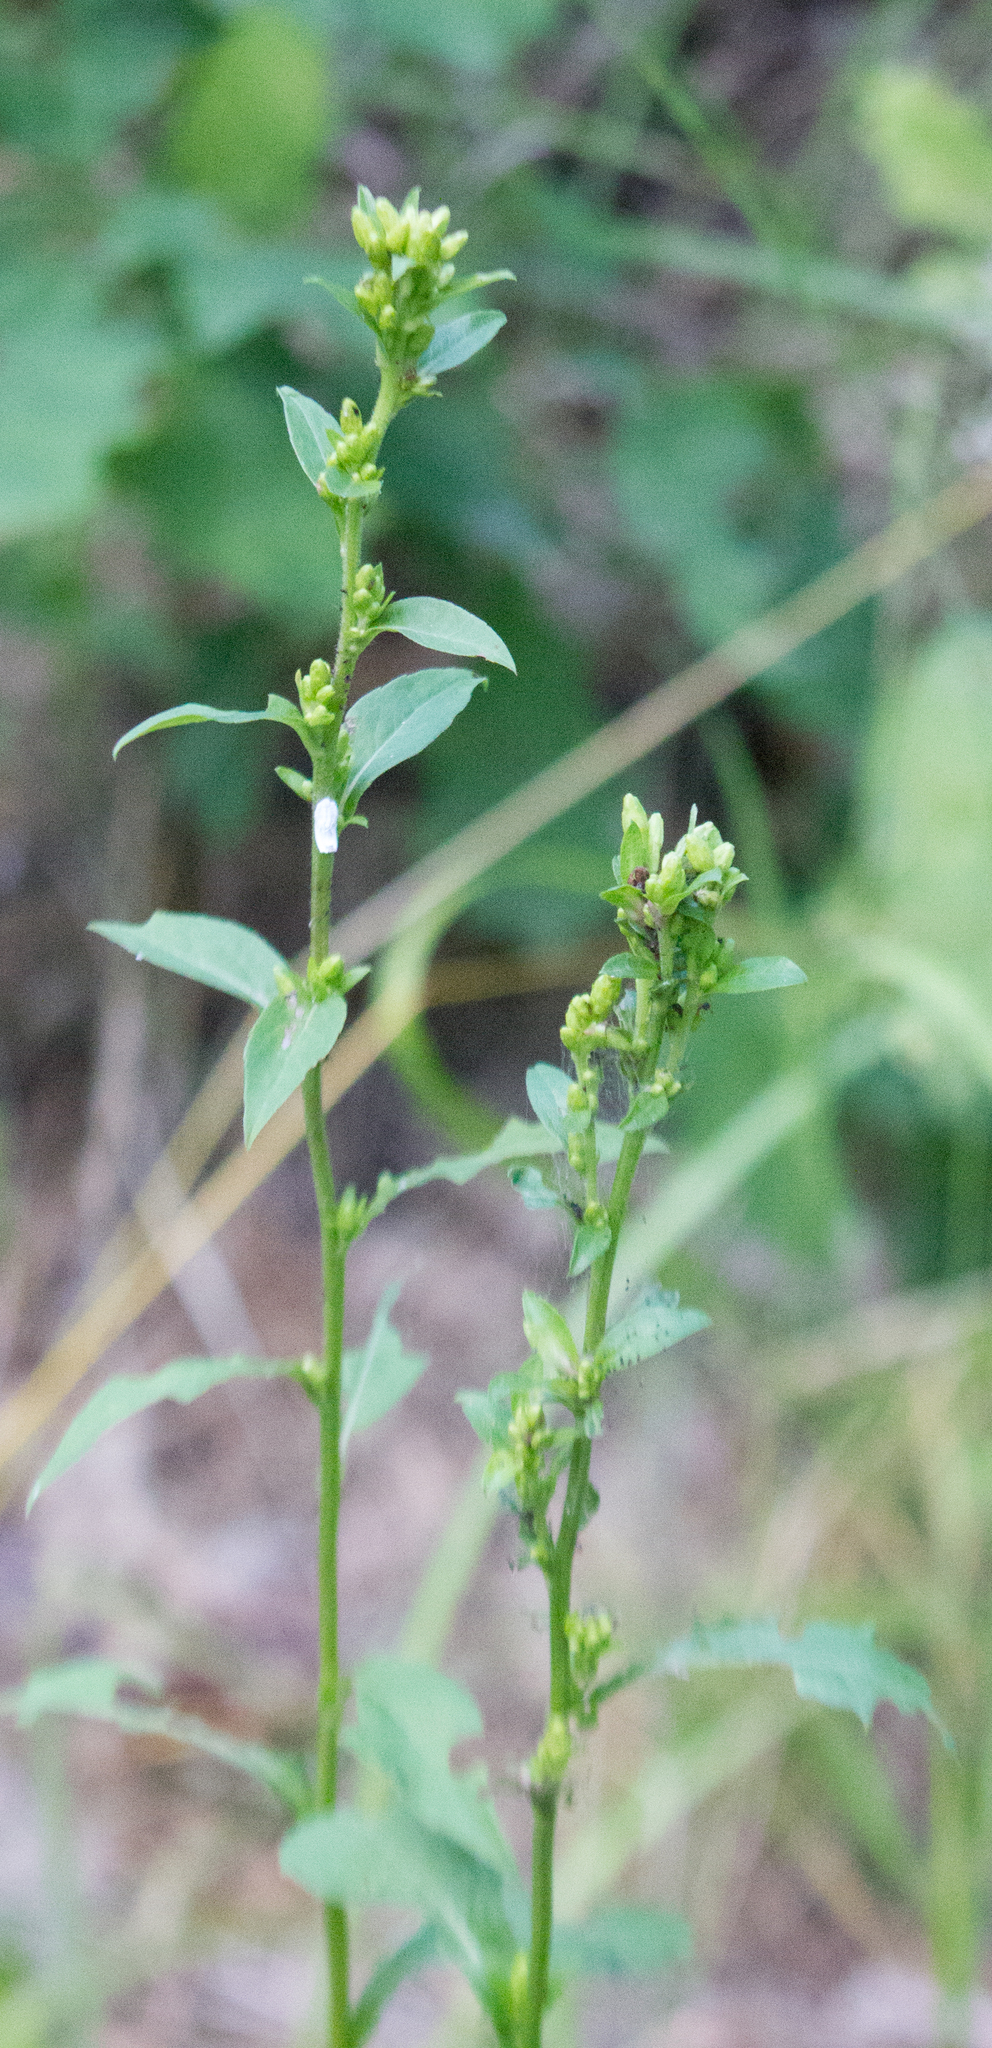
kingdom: Plantae
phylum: Tracheophyta
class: Magnoliopsida
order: Asterales
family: Asteraceae
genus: Solidago
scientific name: Solidago virgaurea
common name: Goldenrod
